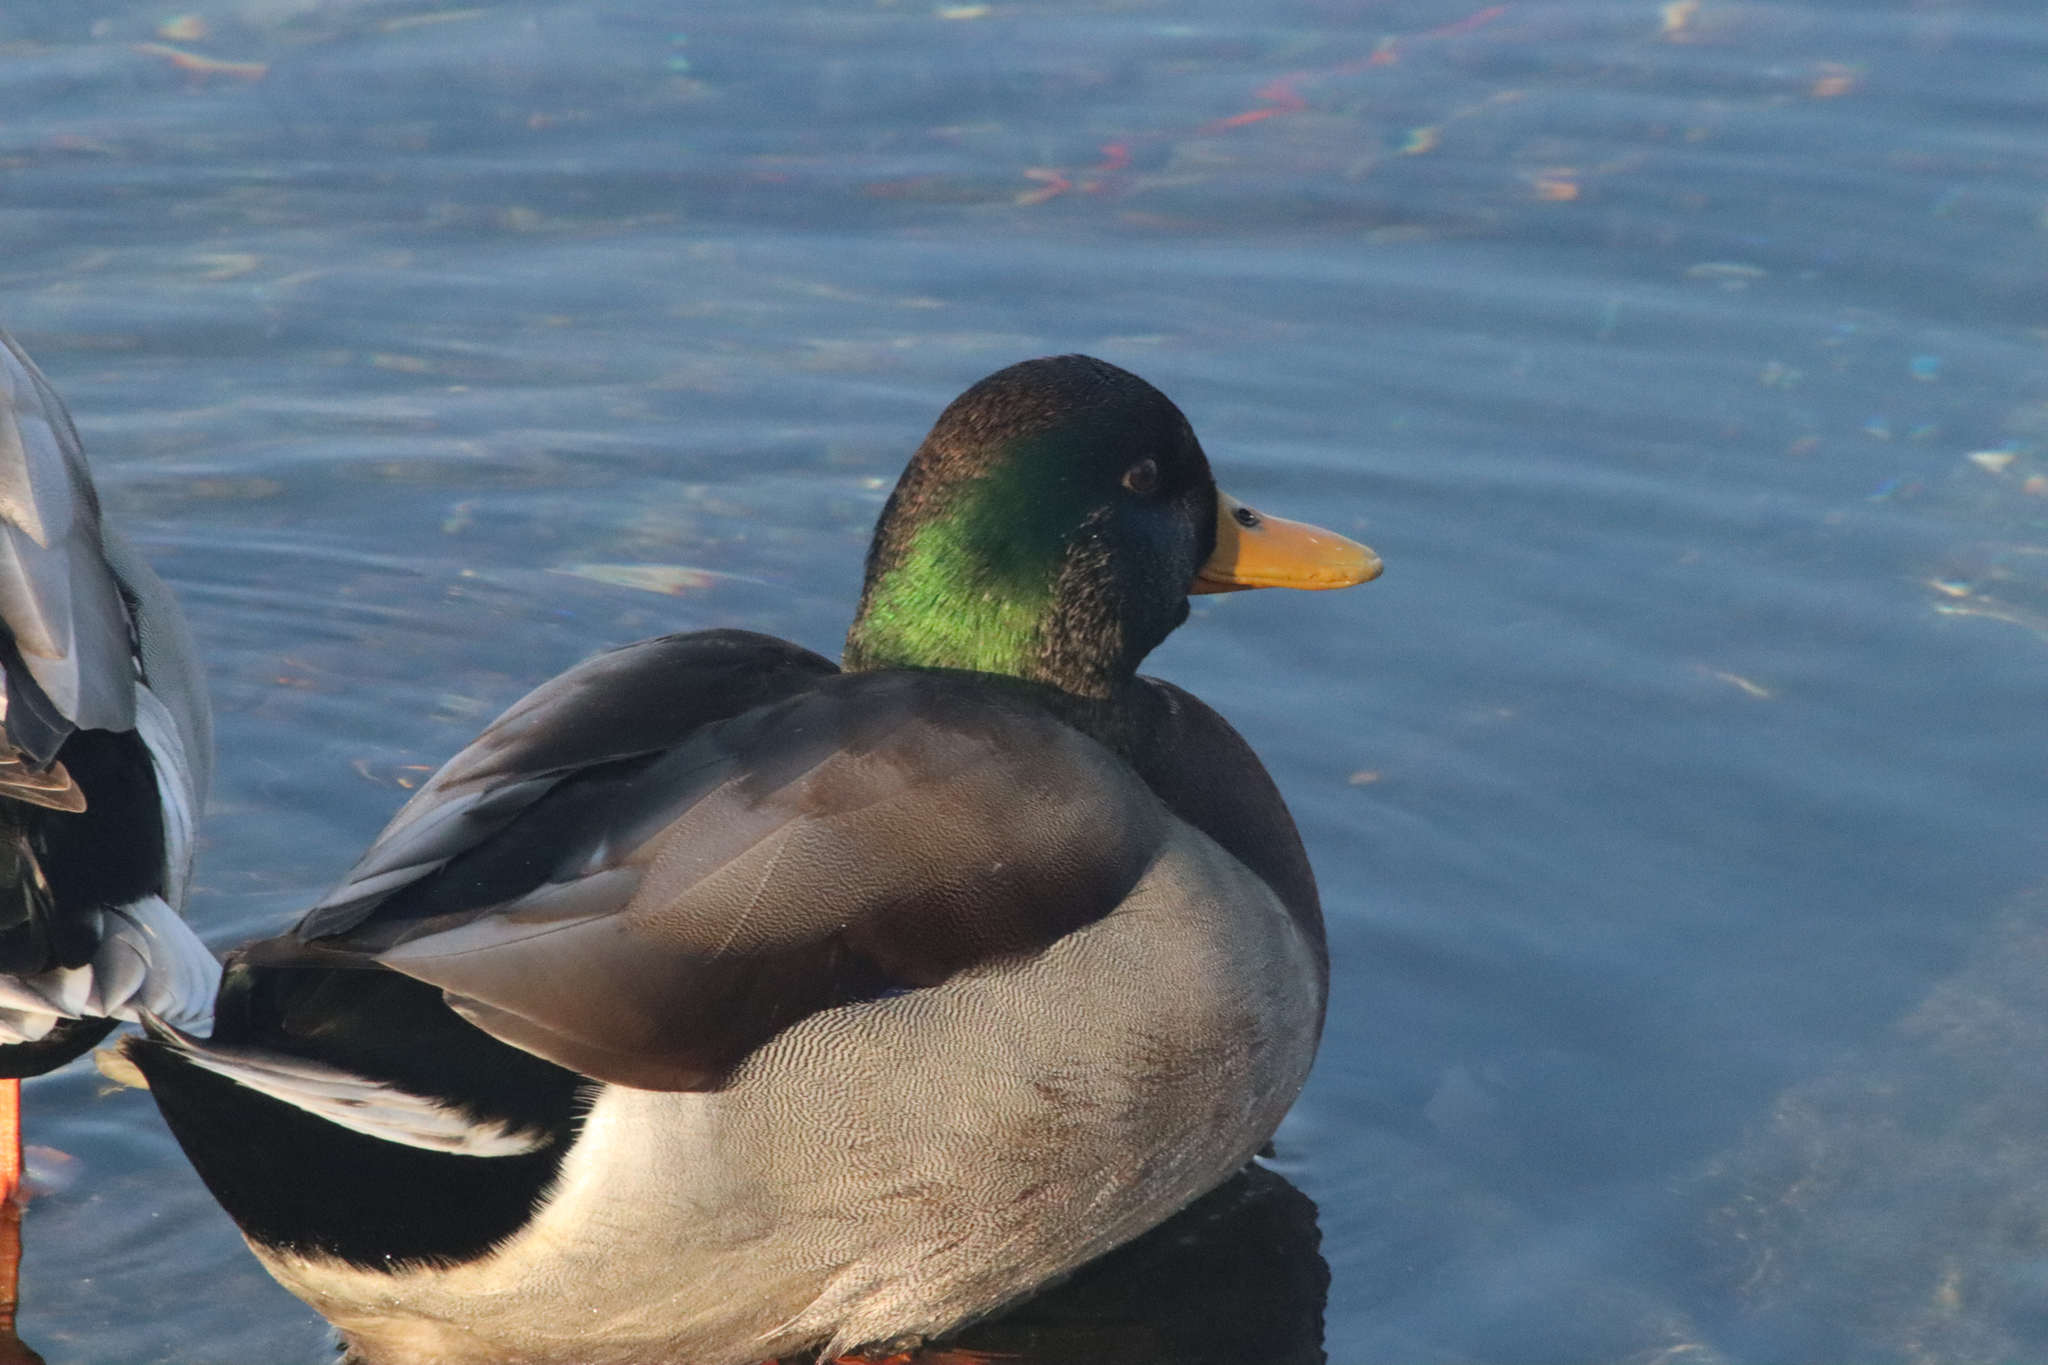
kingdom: Animalia
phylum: Chordata
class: Aves
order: Anseriformes
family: Anatidae
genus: Anas
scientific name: Anas platyrhynchos
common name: Mallard
